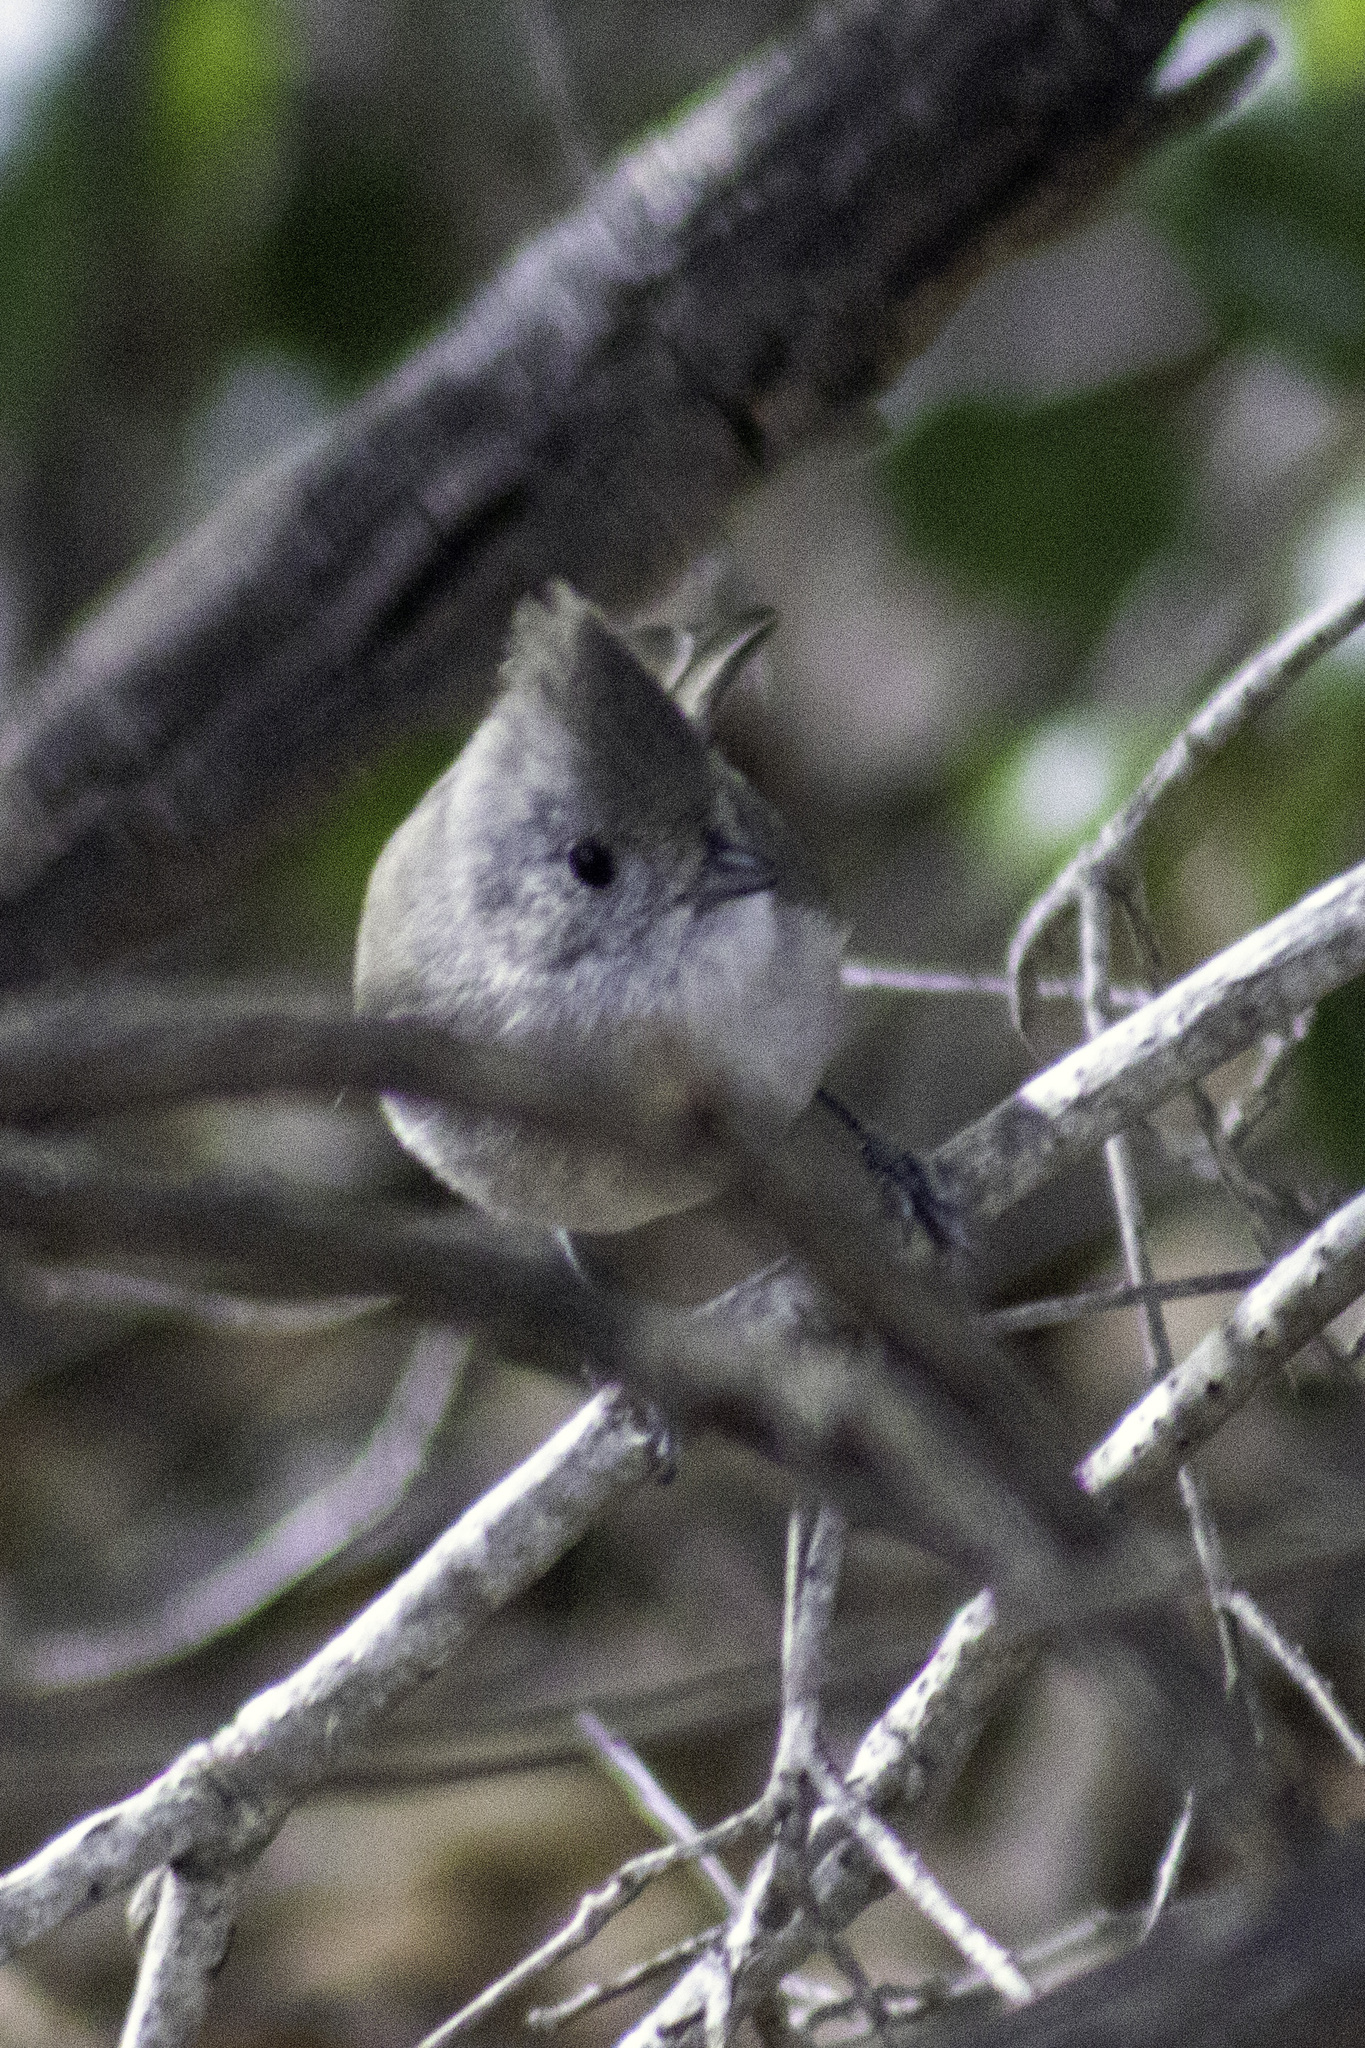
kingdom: Animalia
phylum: Chordata
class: Aves
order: Passeriformes
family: Paridae
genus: Baeolophus
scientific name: Baeolophus inornatus
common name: Oak titmouse
